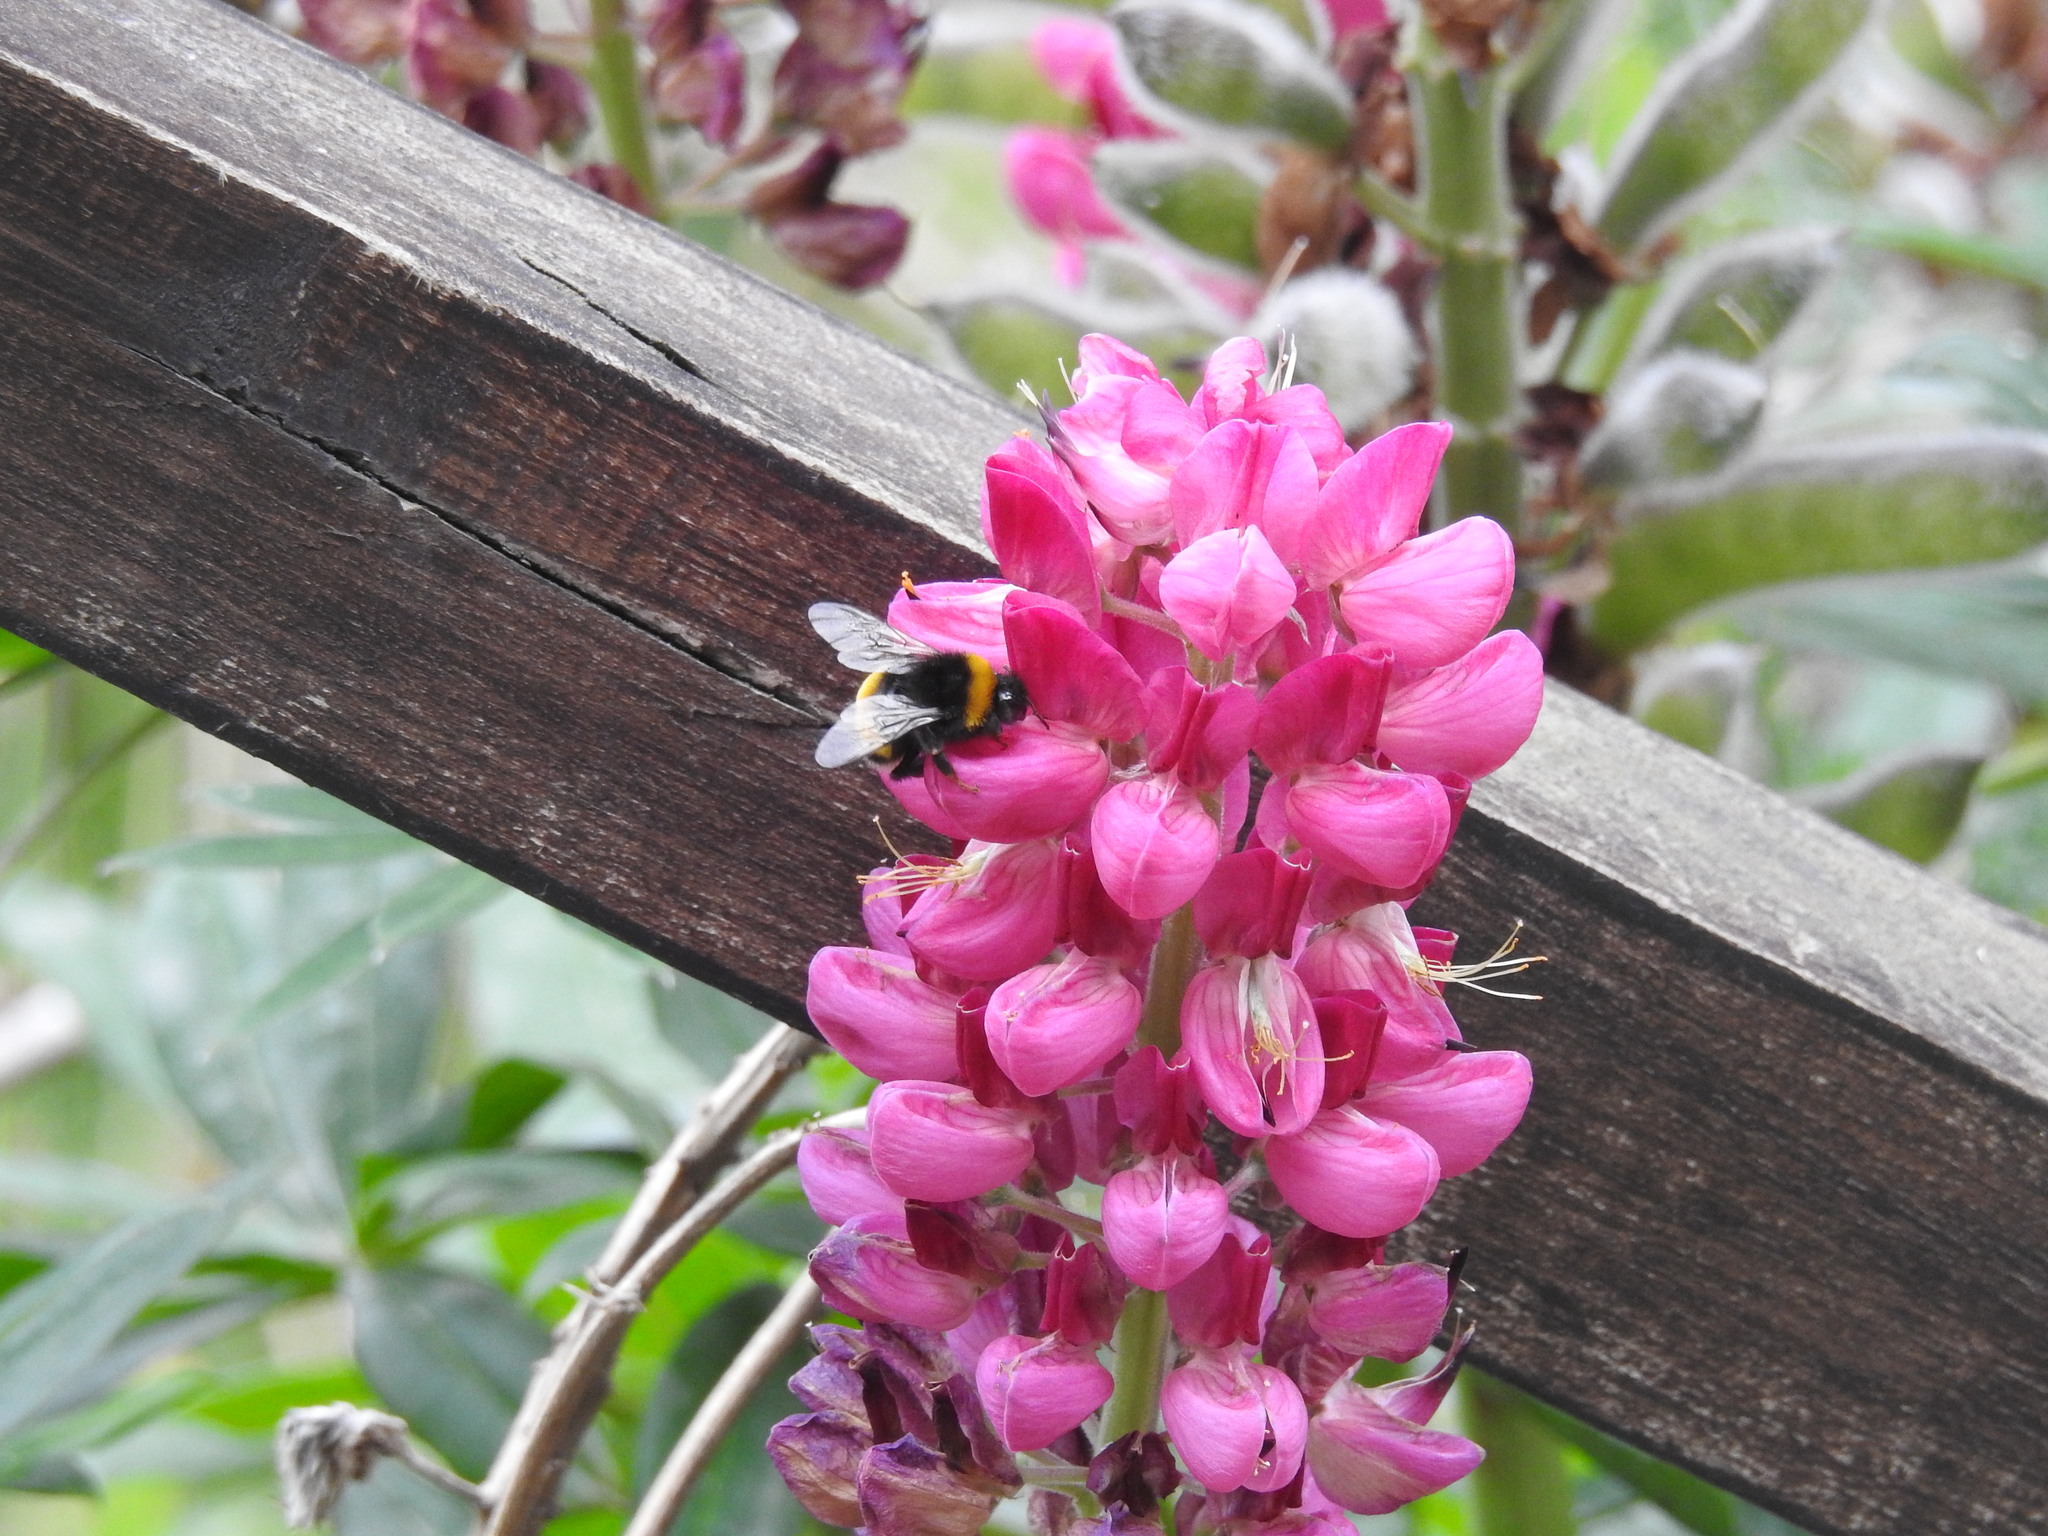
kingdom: Plantae
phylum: Tracheophyta
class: Magnoliopsida
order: Fabales
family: Fabaceae
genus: Lupinus
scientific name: Lupinus polyphyllus
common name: Garden lupin
